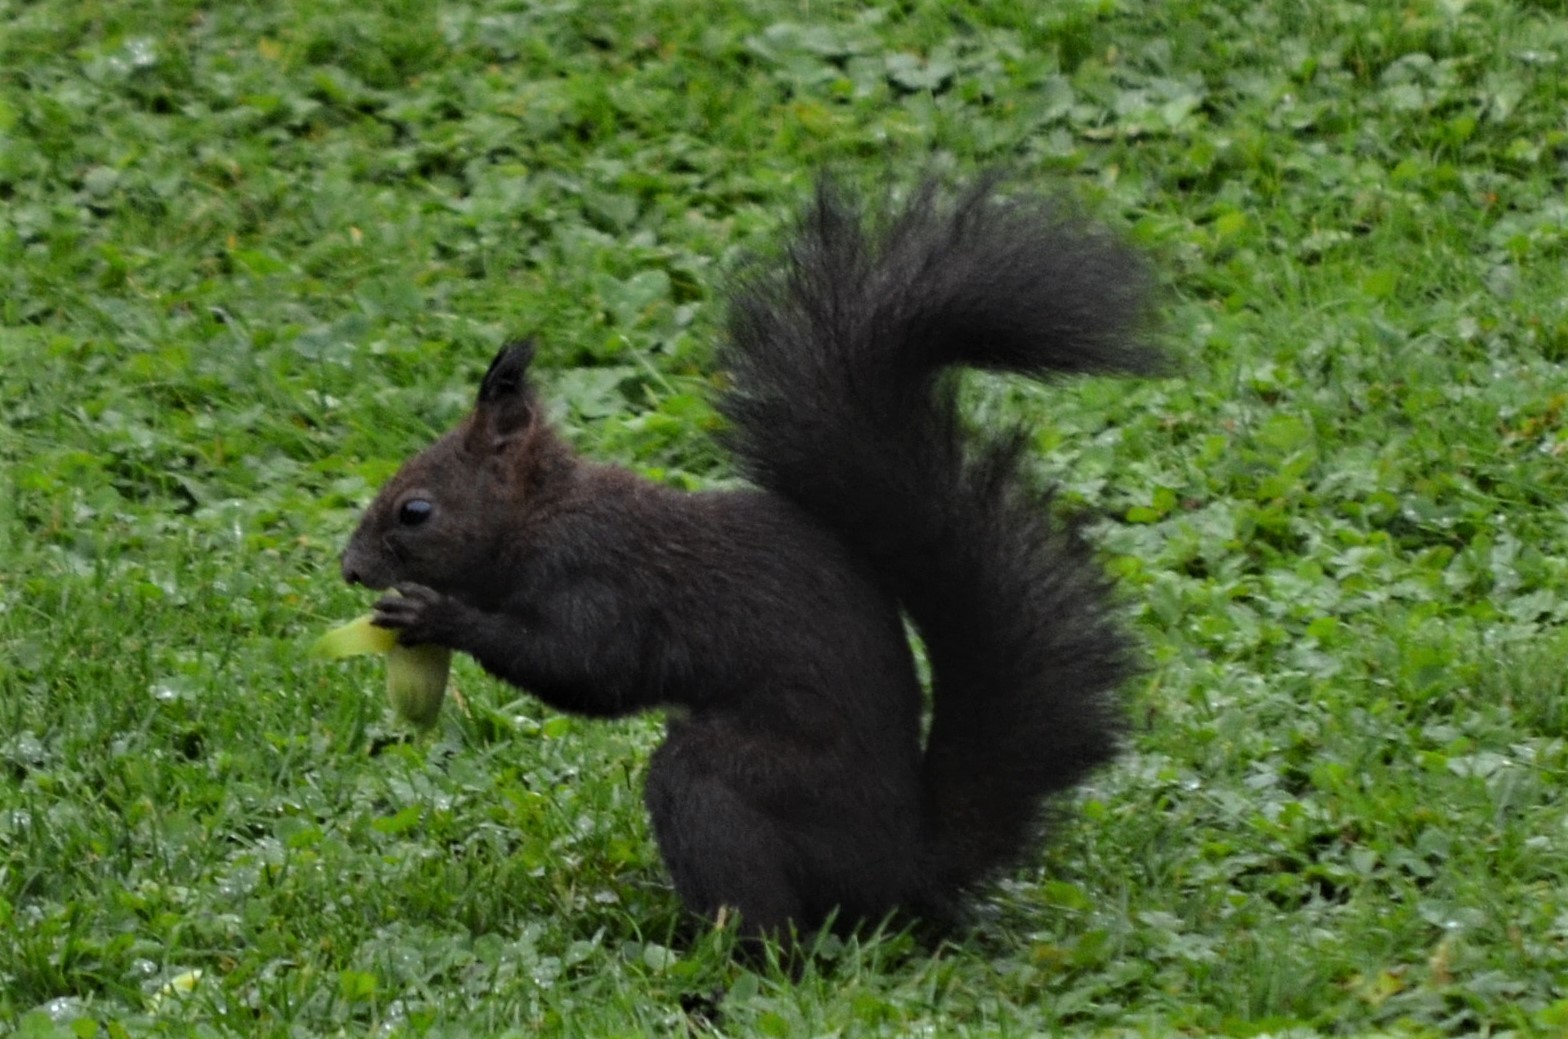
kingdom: Animalia
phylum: Chordata
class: Mammalia
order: Rodentia
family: Sciuridae
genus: Sciurus
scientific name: Sciurus vulgaris
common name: Eurasian red squirrel
